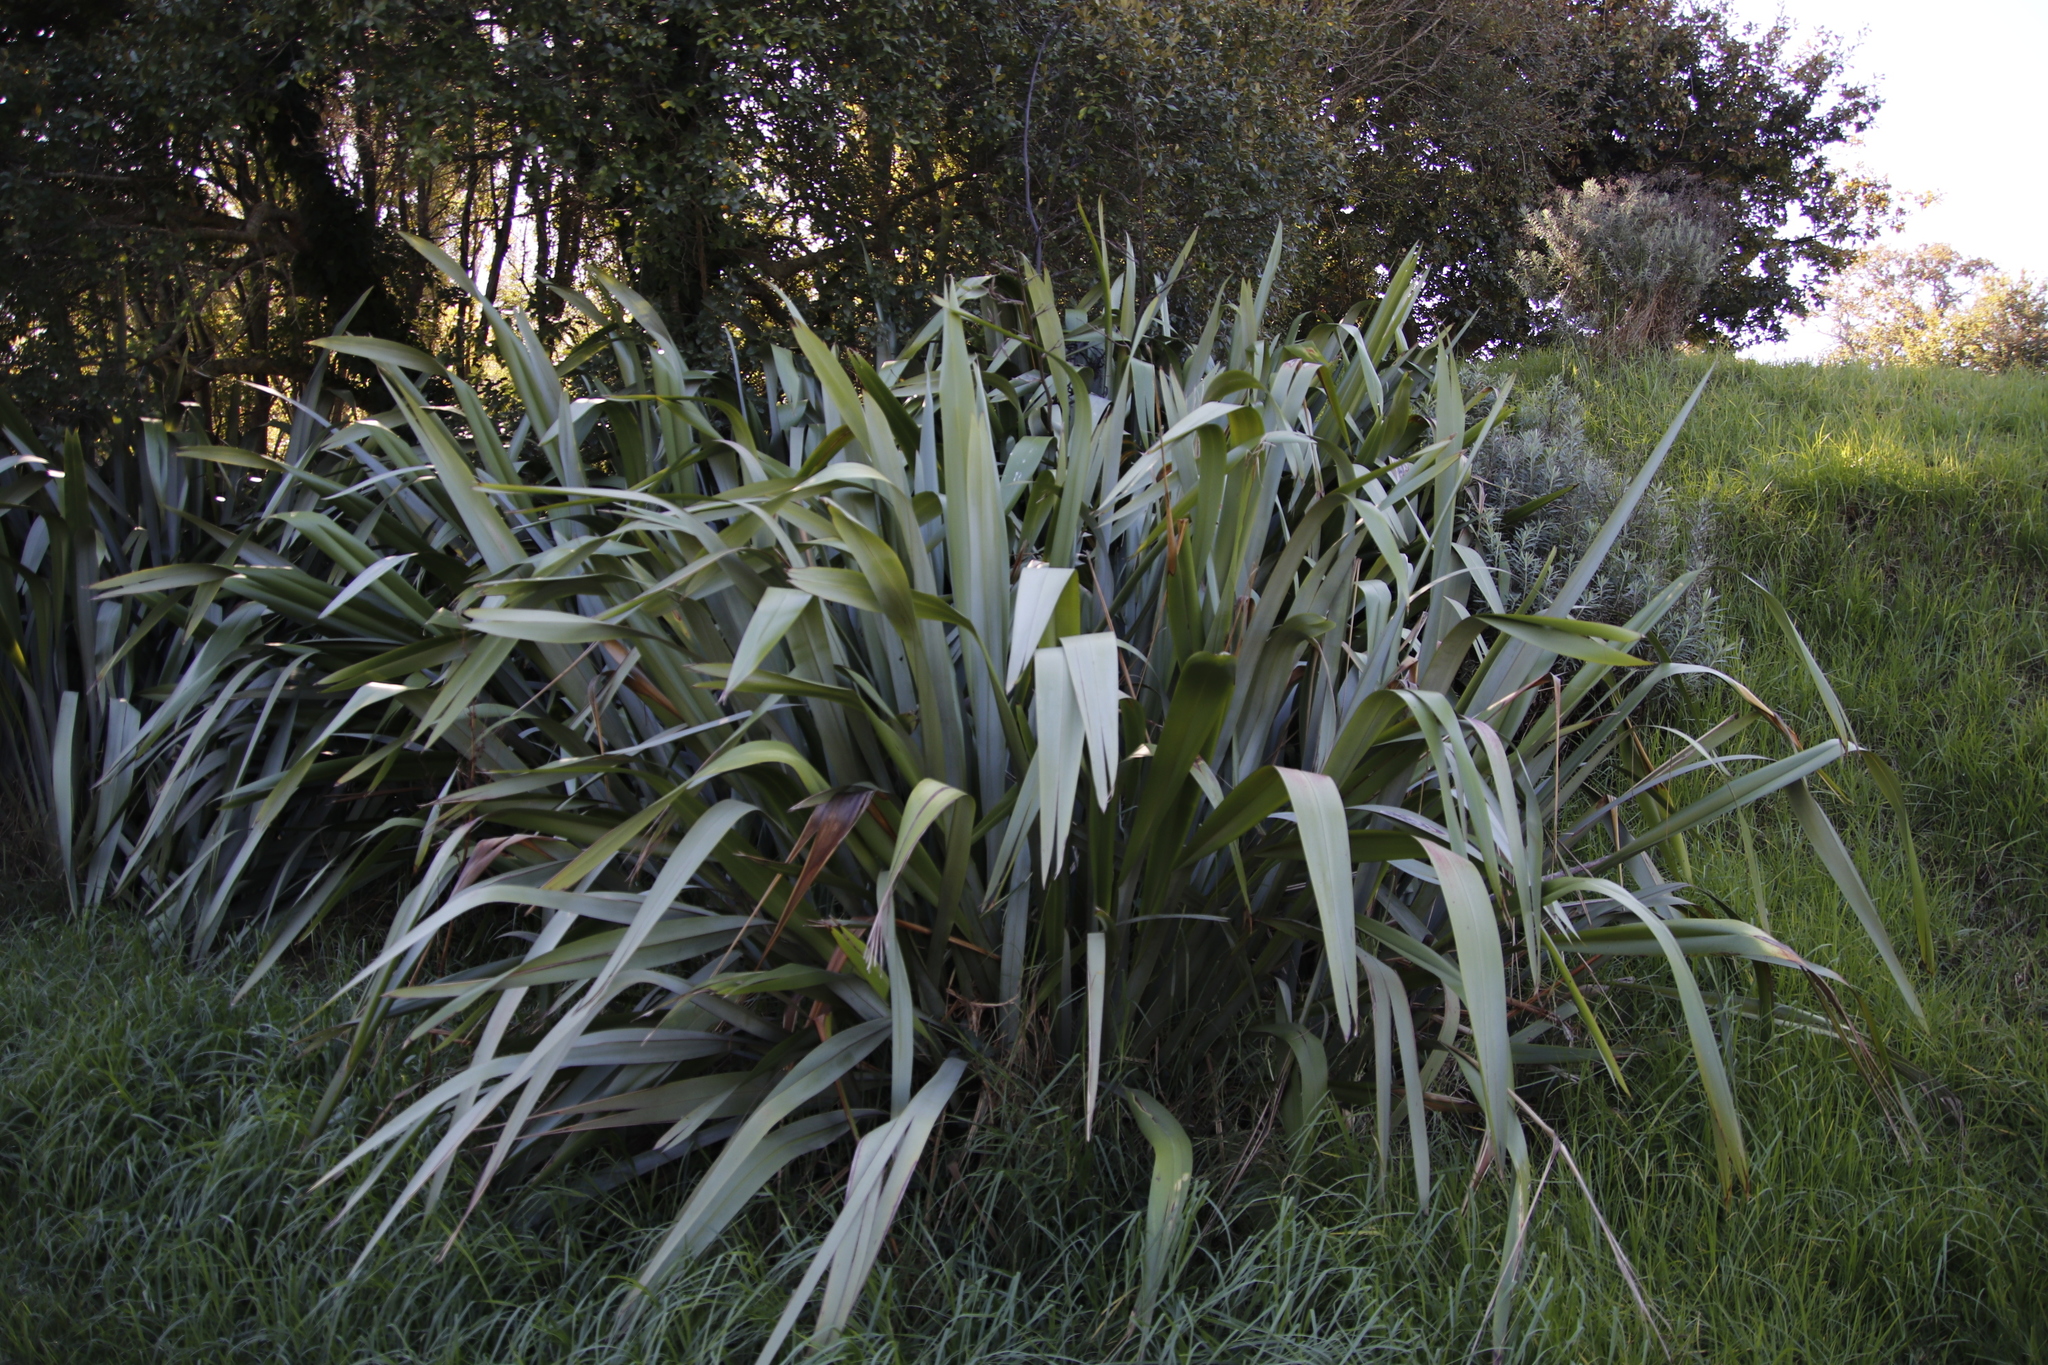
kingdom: Plantae
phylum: Tracheophyta
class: Liliopsida
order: Asparagales
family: Asphodelaceae
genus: Phormium
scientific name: Phormium tenax
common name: New zealand flax
